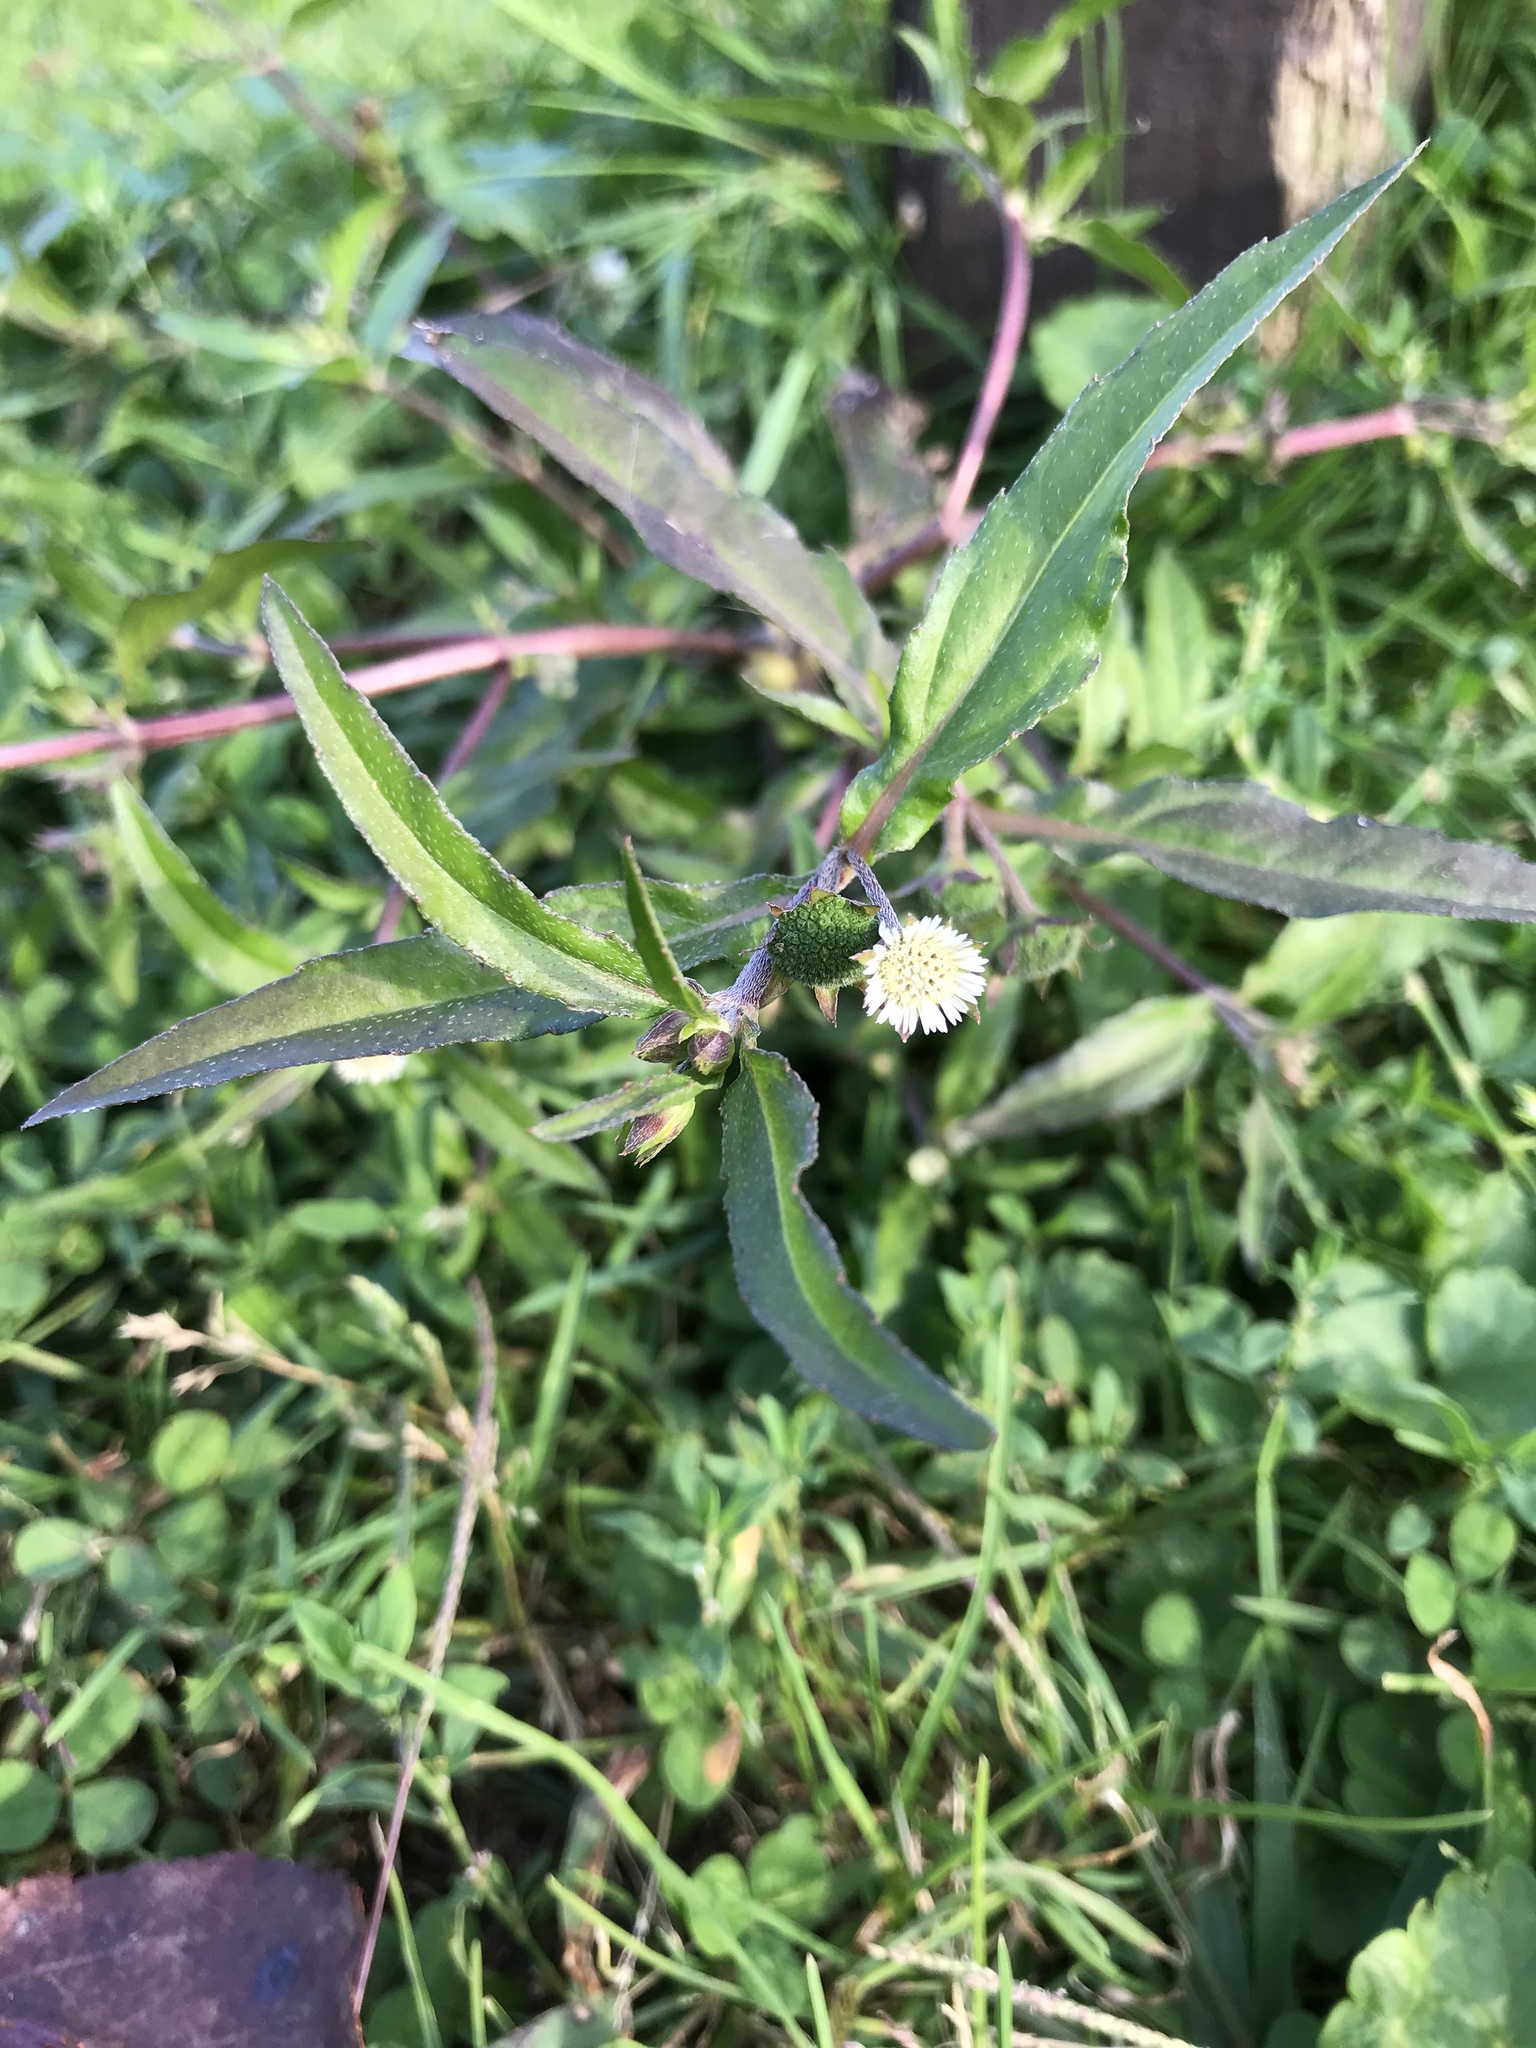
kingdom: Plantae
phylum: Tracheophyta
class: Magnoliopsida
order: Asterales
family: Asteraceae
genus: Eclipta
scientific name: Eclipta prostrata
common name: False daisy
